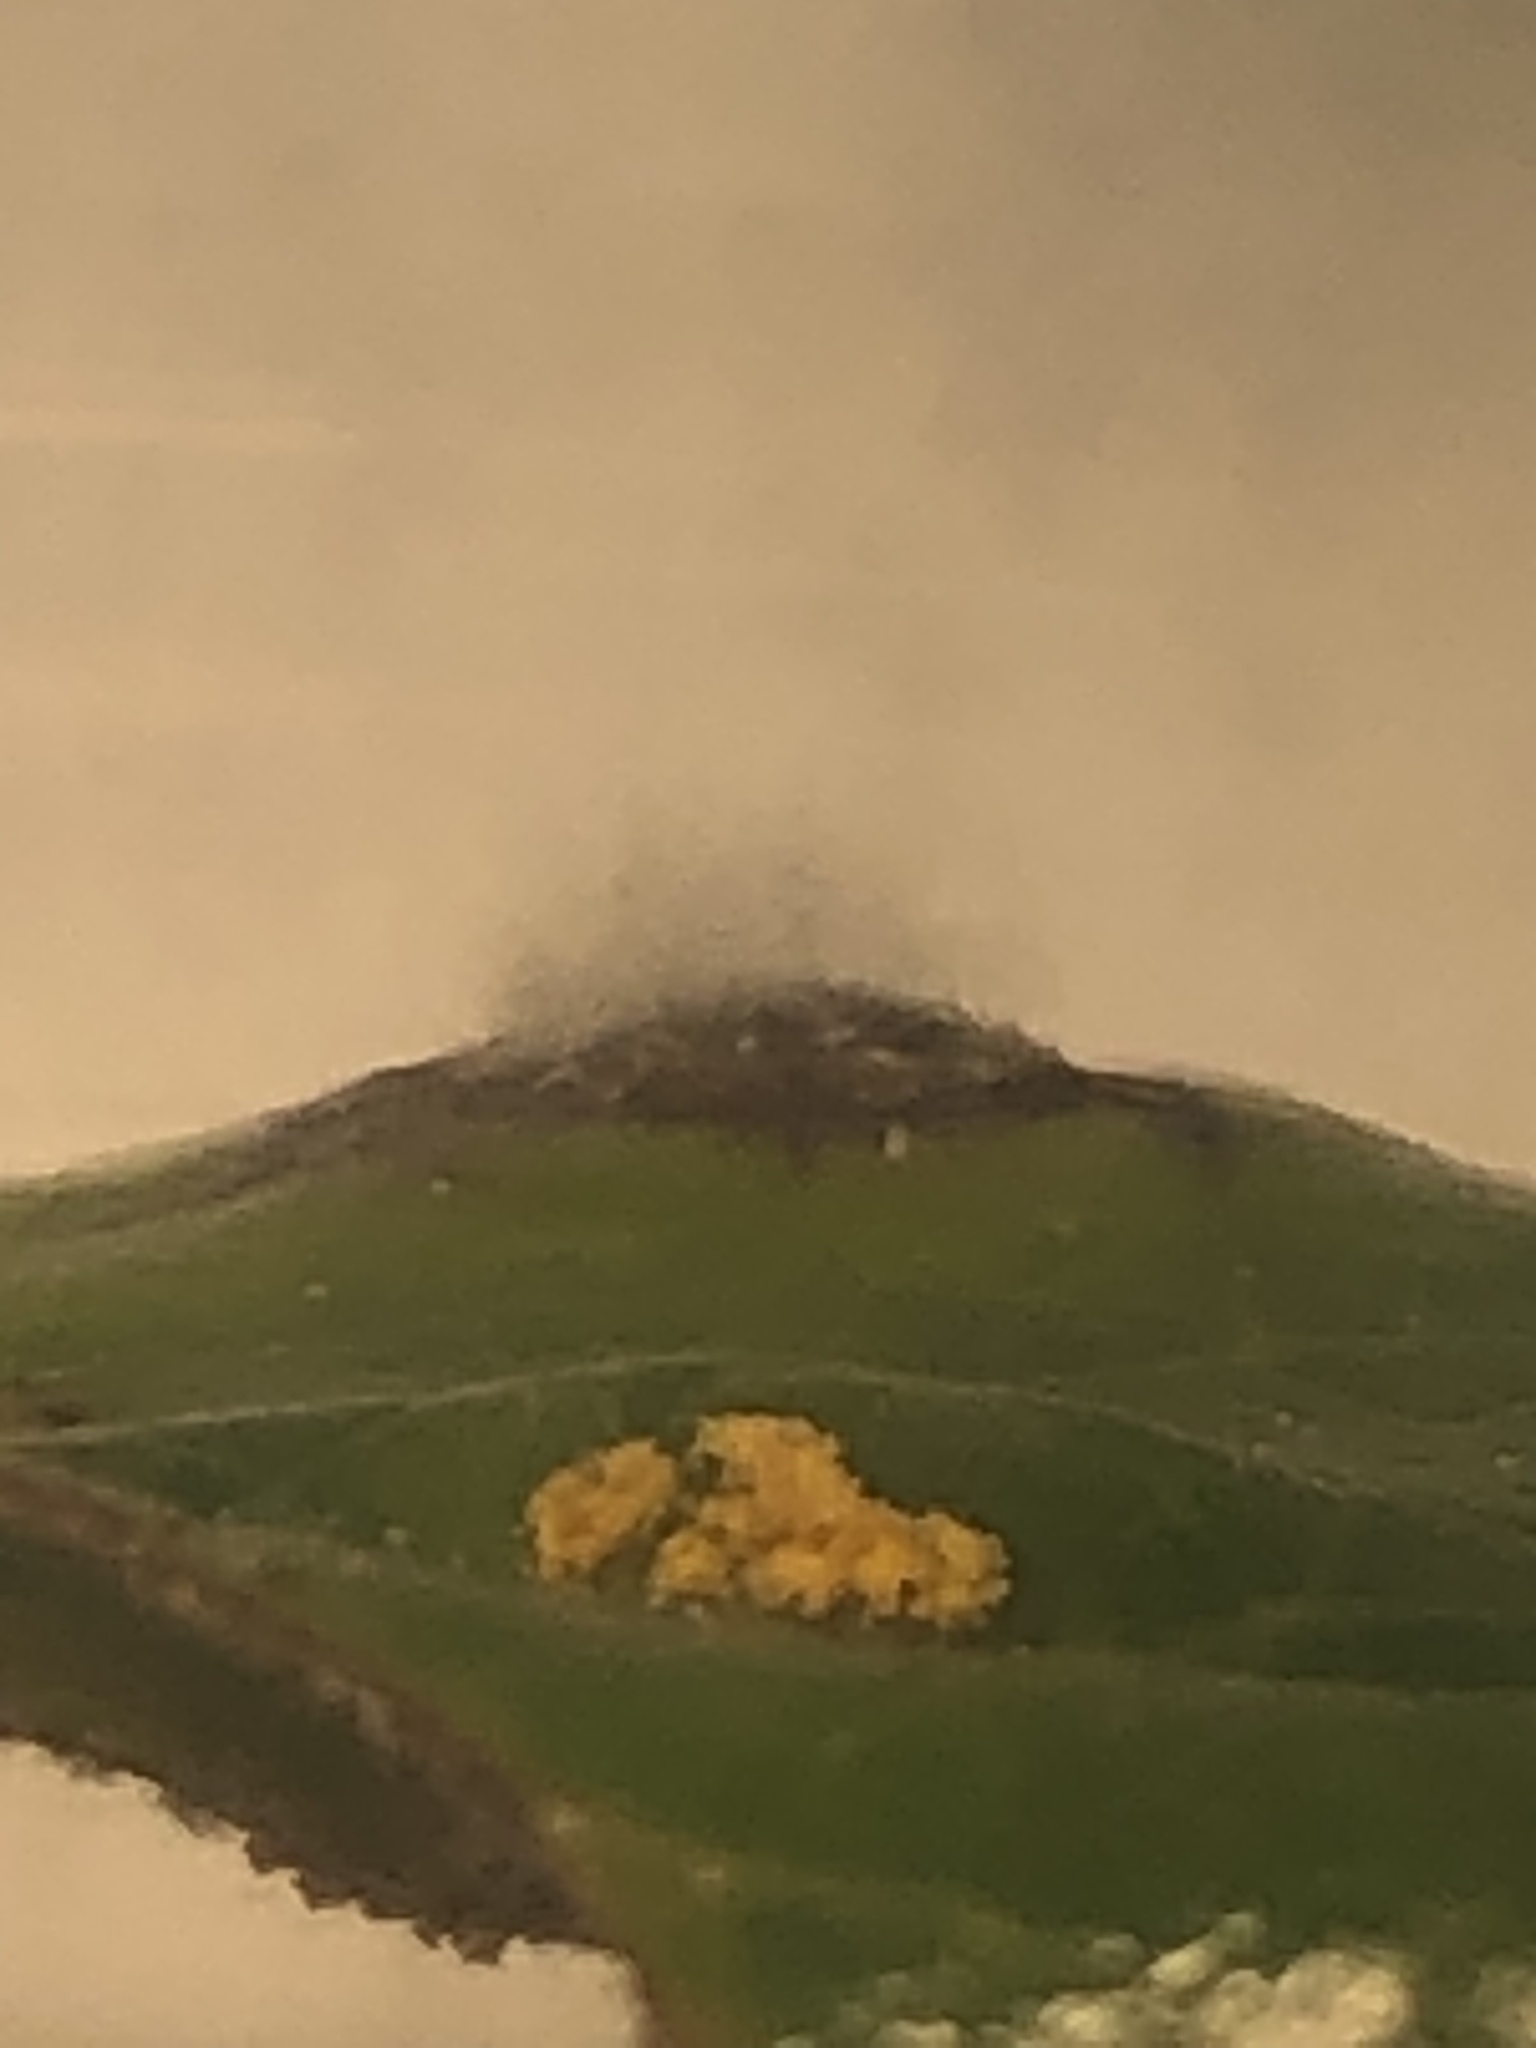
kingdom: Fungi
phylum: Basidiomycota
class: Pucciniomycetes
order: Pucciniales
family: Pucciniaceae
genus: Cumminsiella
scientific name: Cumminsiella mirabilissima
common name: Mahonia rust
